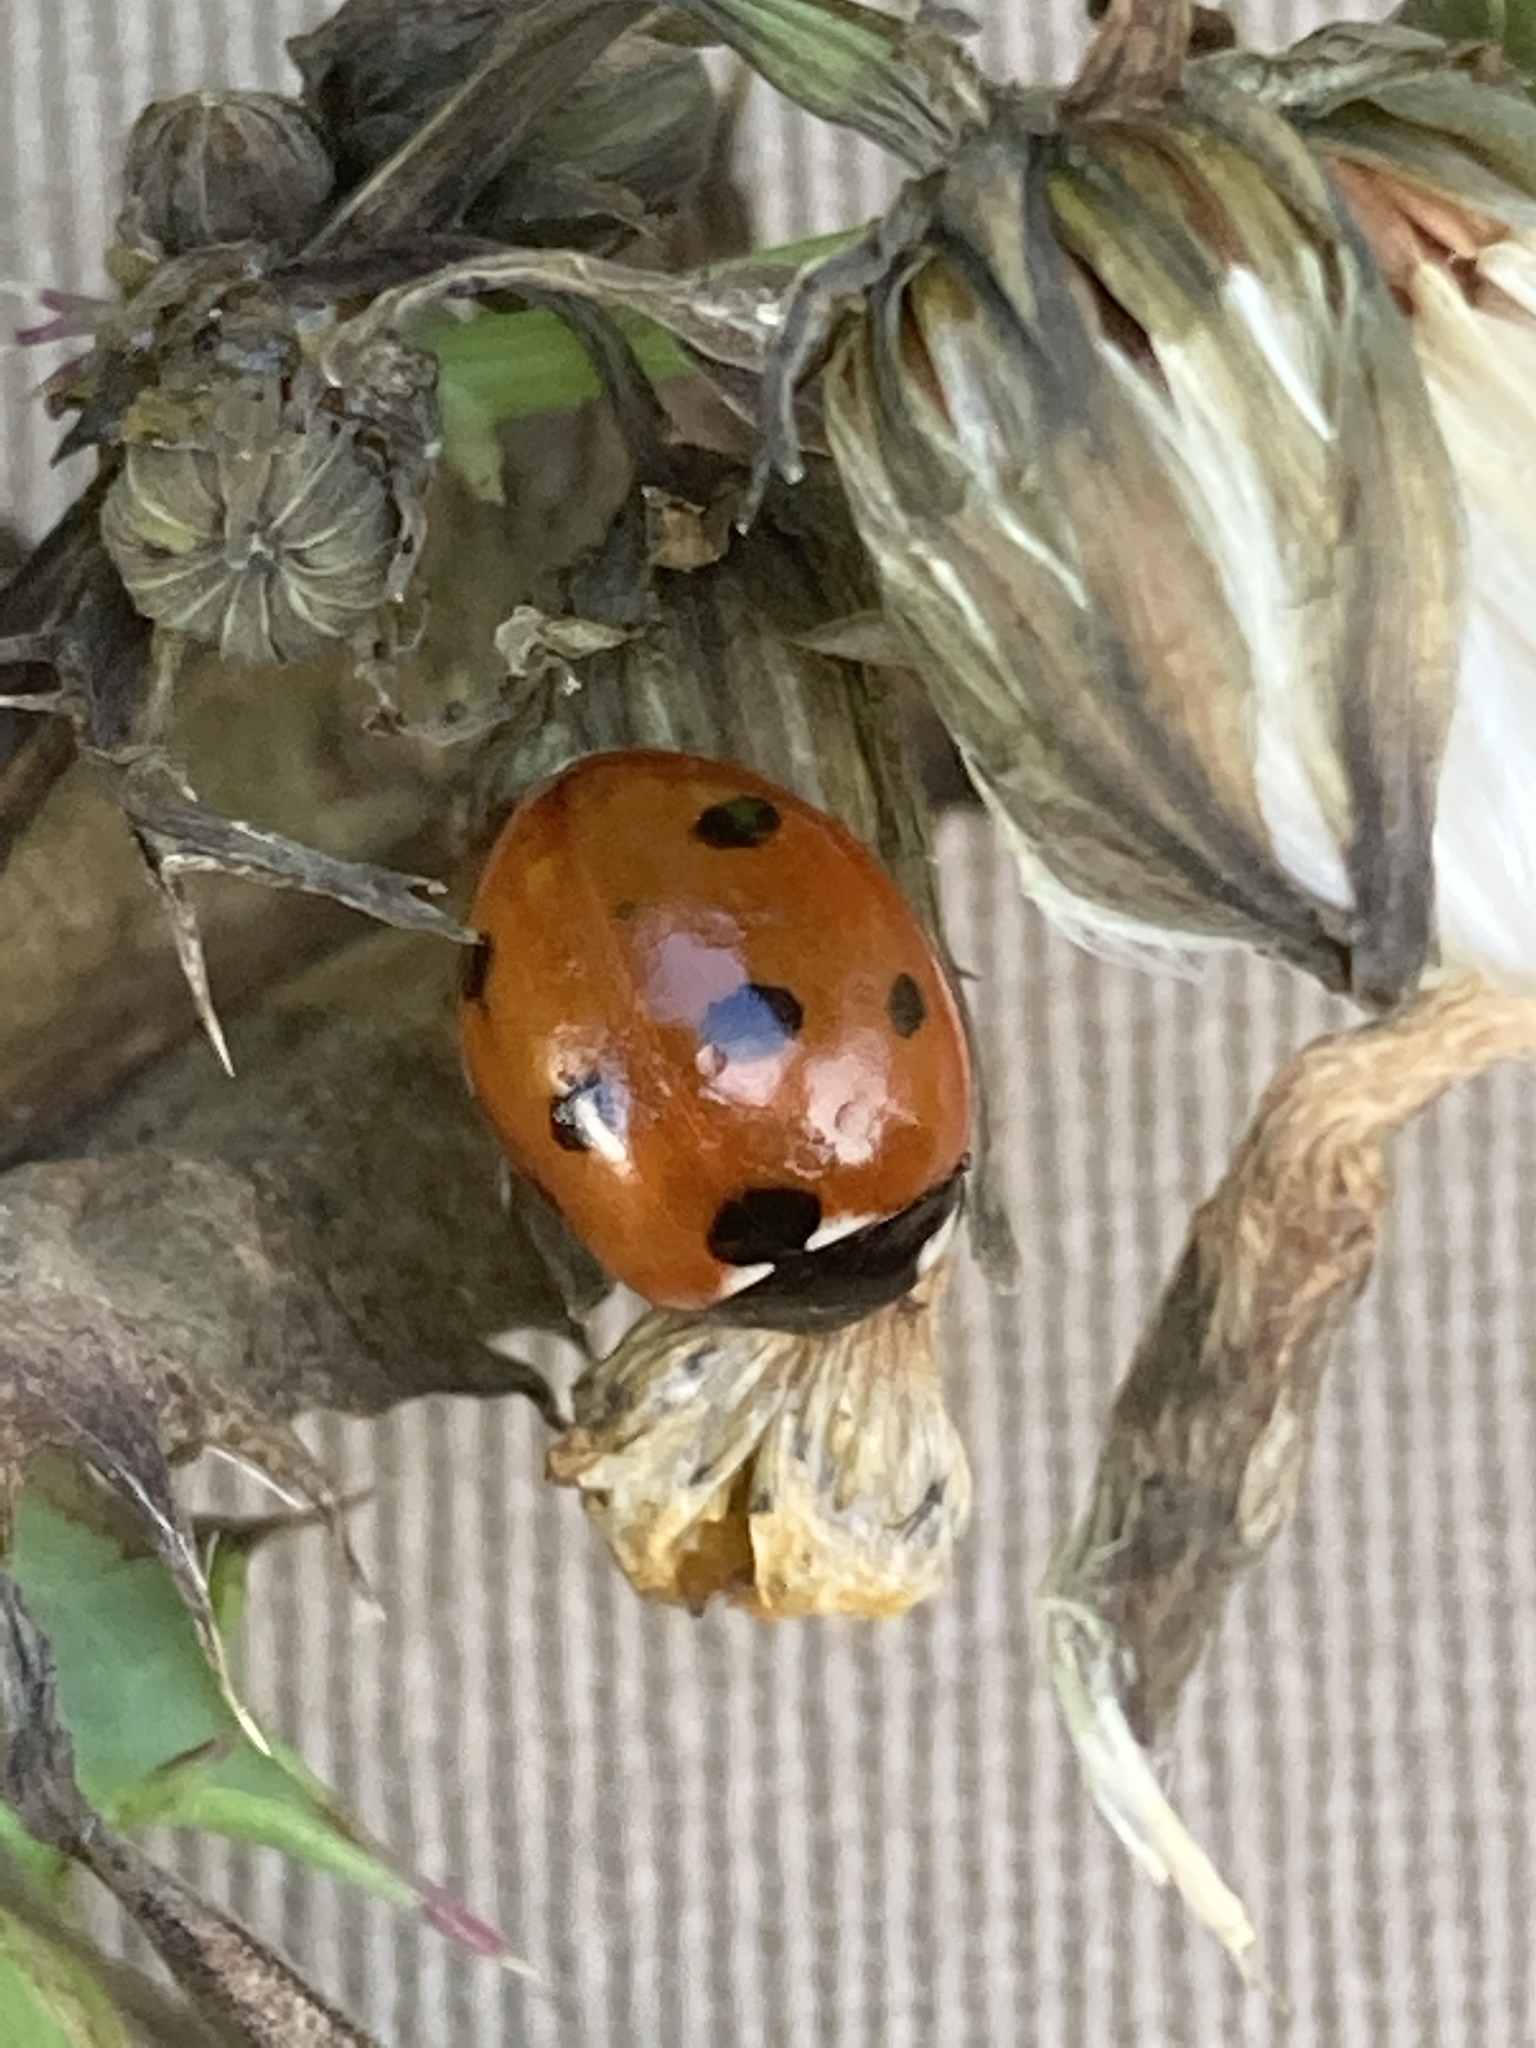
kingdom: Animalia
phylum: Arthropoda
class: Insecta
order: Coleoptera
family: Coccinellidae
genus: Coccinella
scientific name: Coccinella septempunctata
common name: Sevenspotted lady beetle
